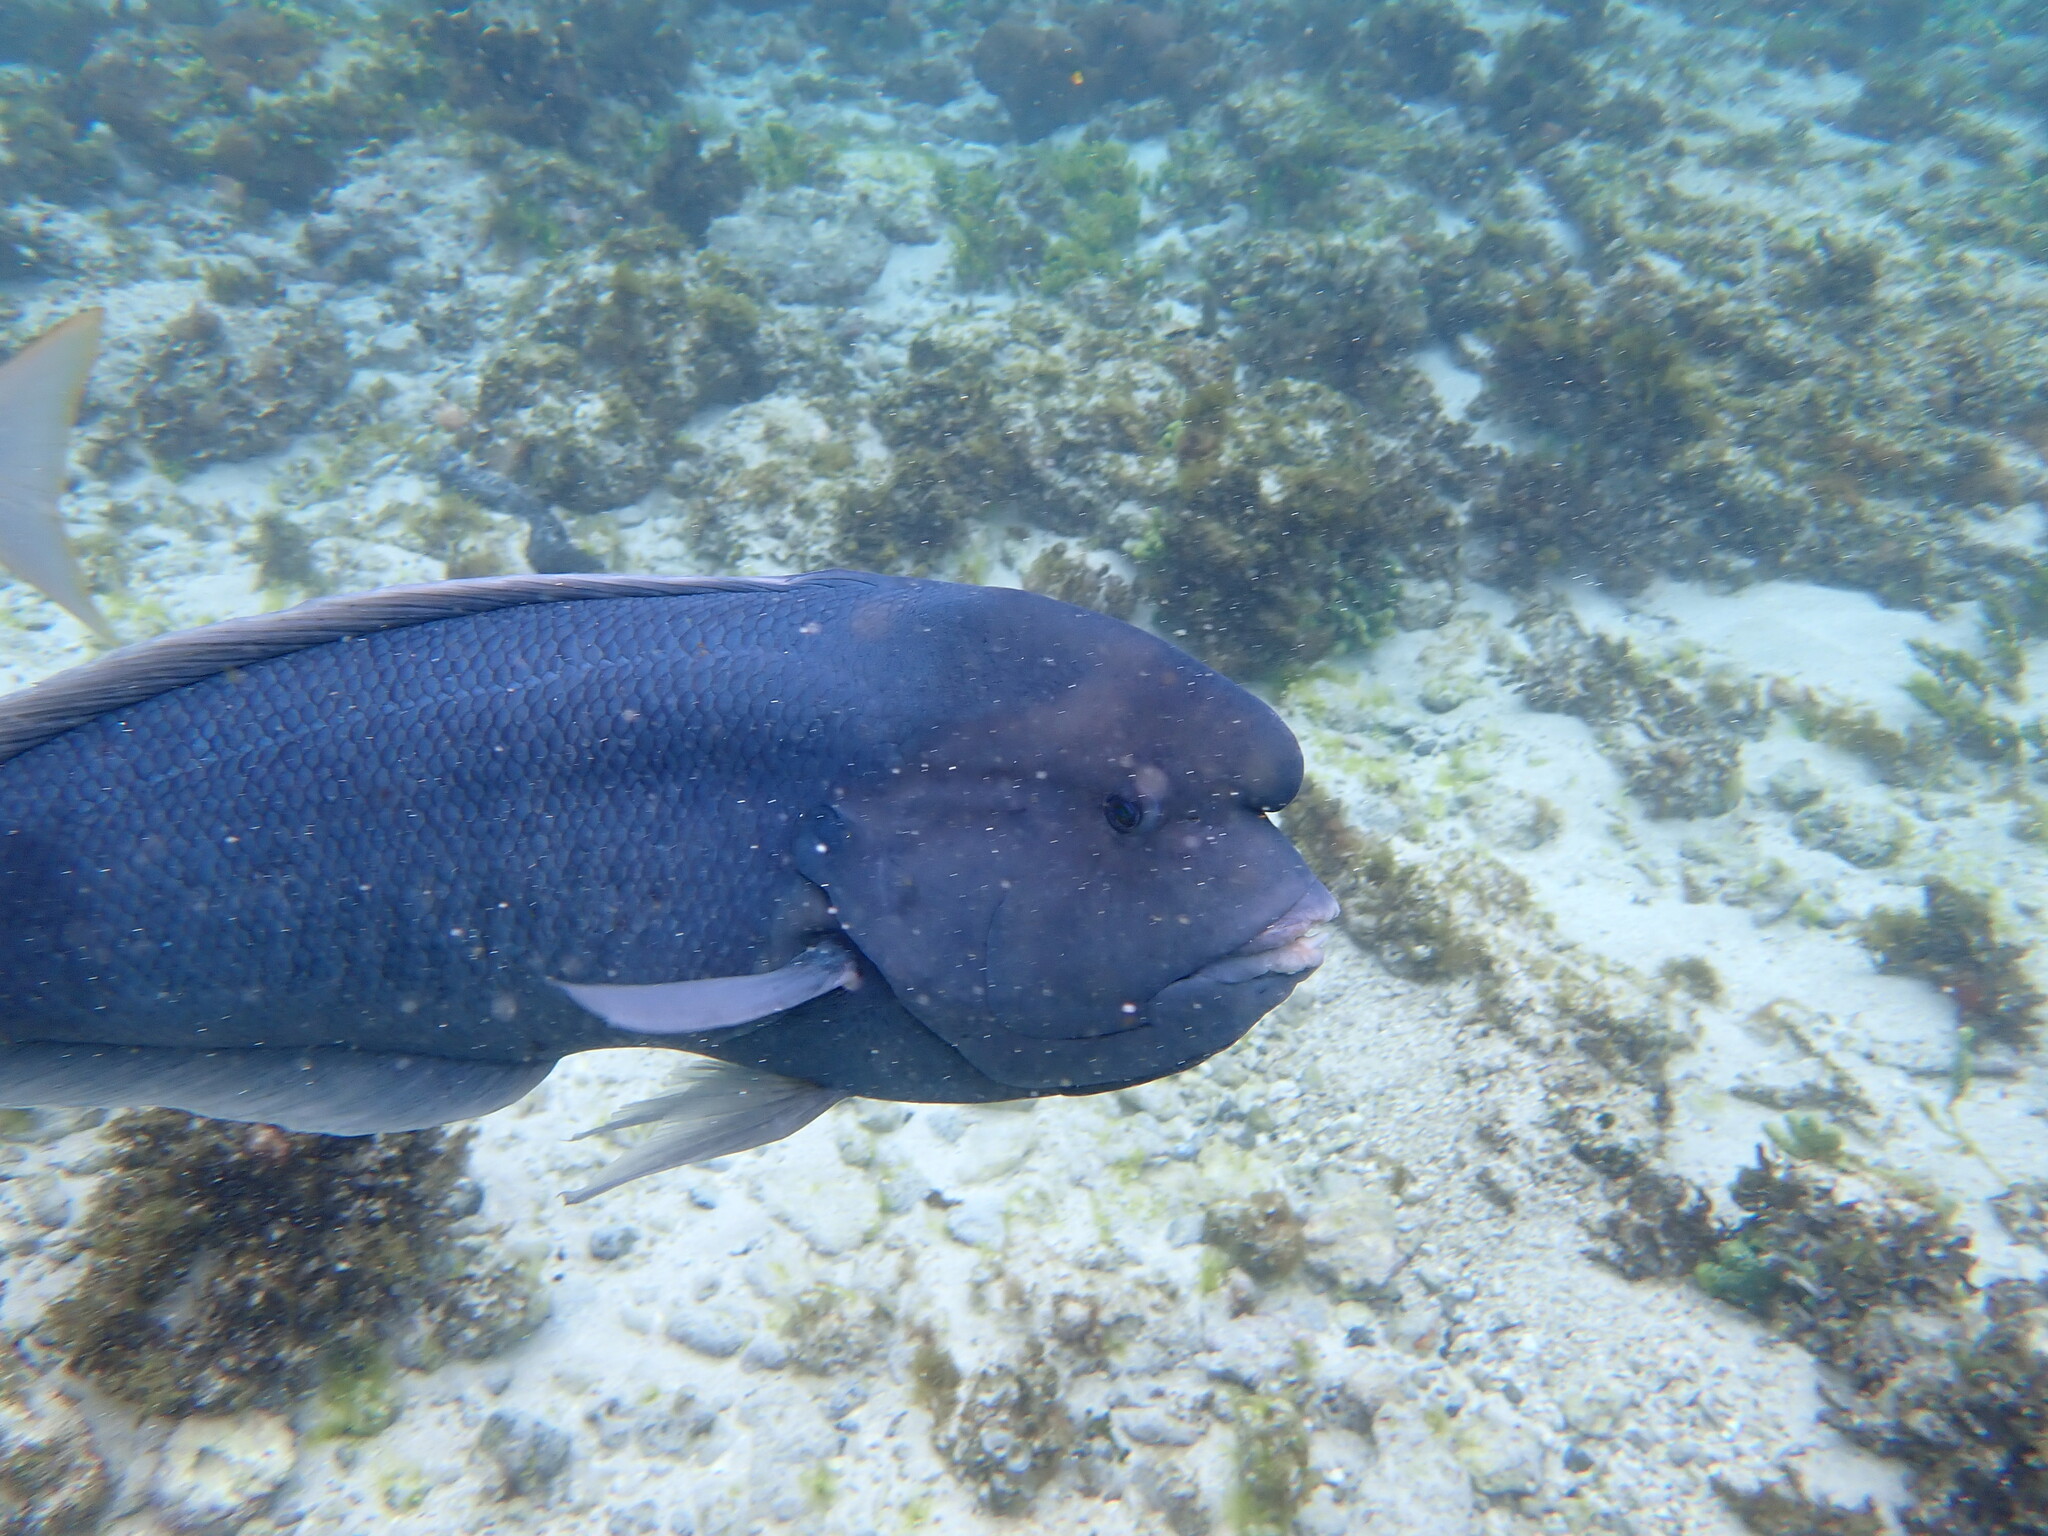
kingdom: Animalia
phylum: Chordata
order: Perciformes
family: Labridae
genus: Coris
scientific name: Coris bulbifrons
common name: Doubleheader
